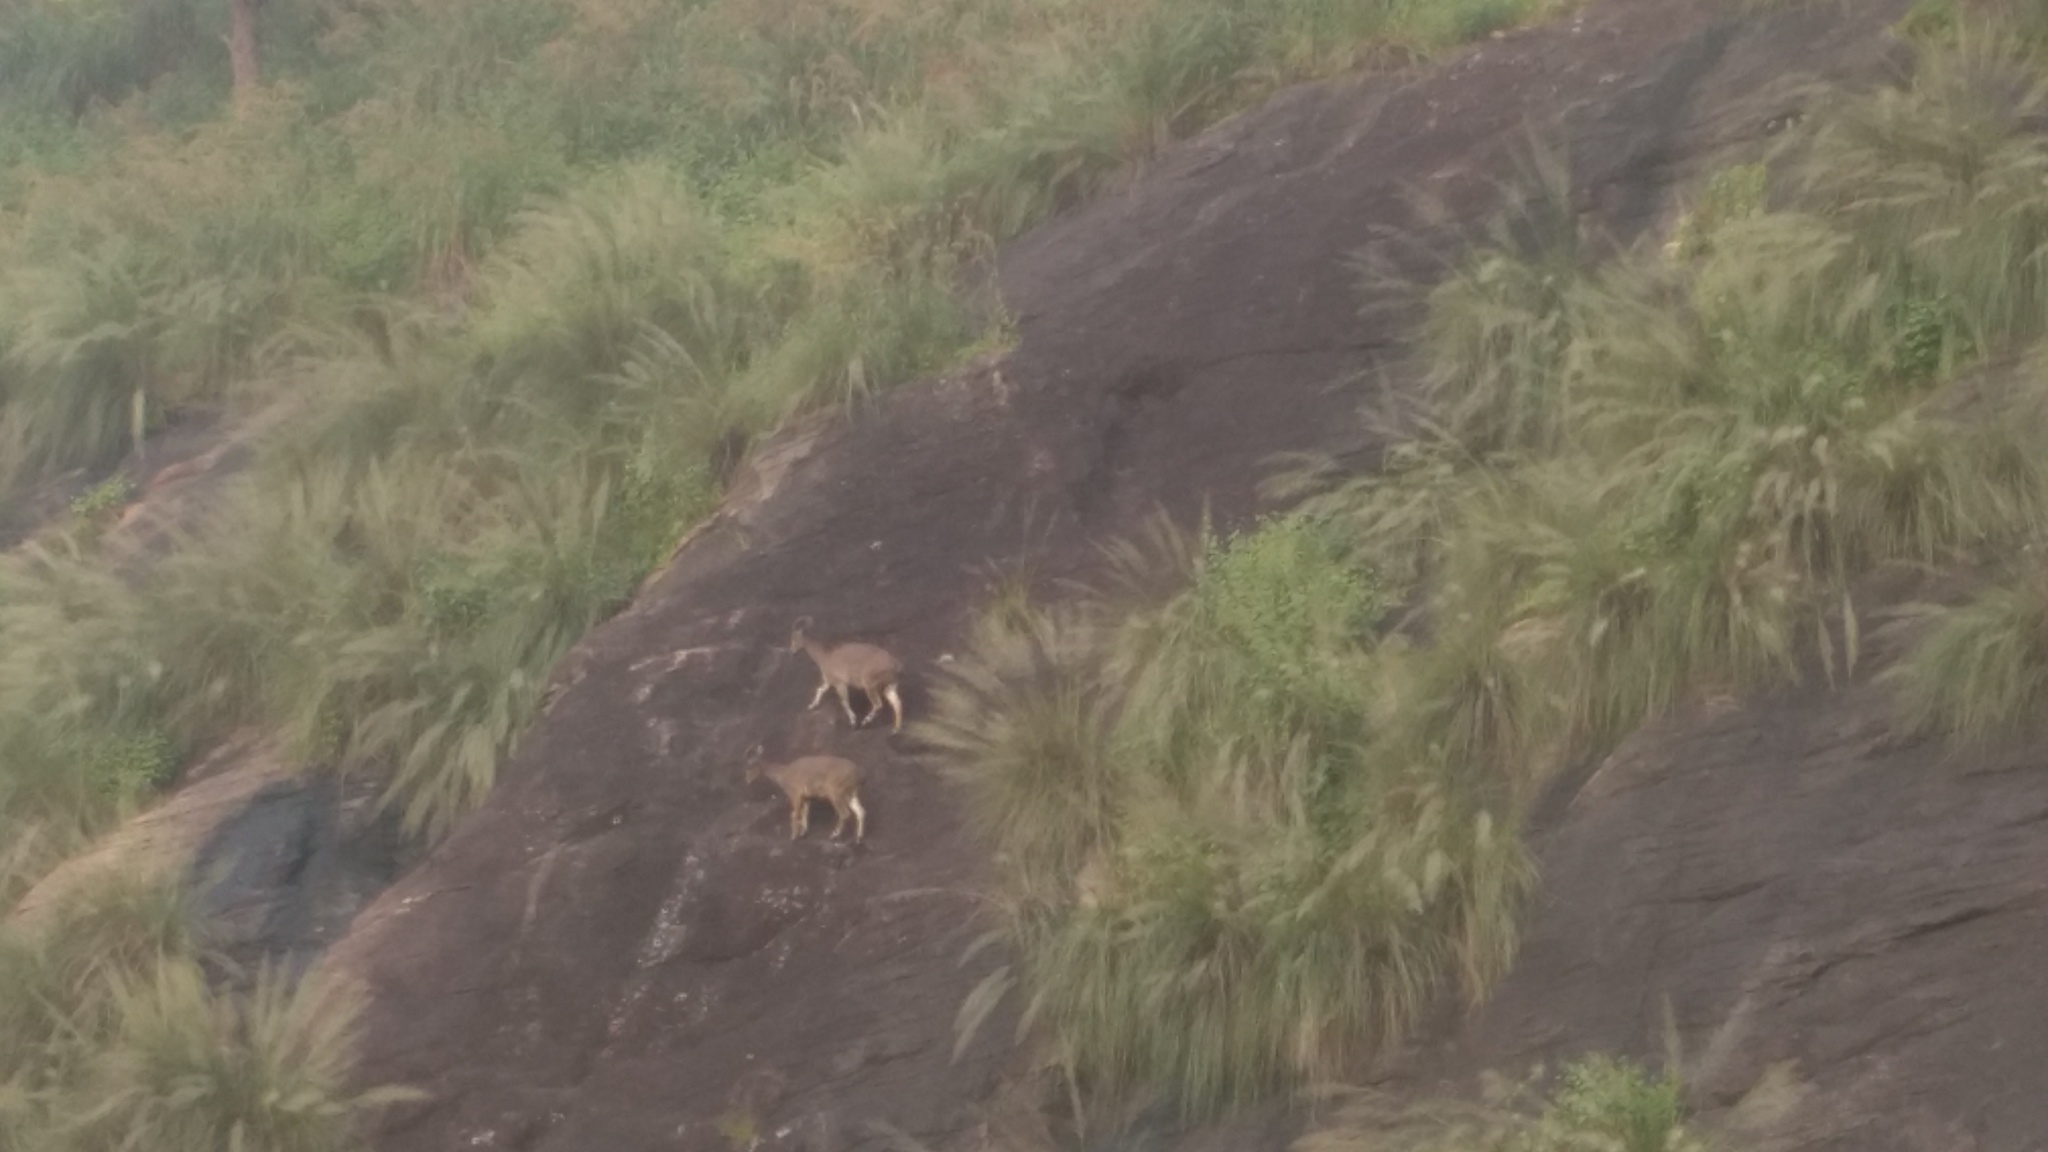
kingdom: Animalia
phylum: Chordata
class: Mammalia
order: Artiodactyla
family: Bovidae
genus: Hemitragus
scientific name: Hemitragus hylocrius
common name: Nilgiri tahr
